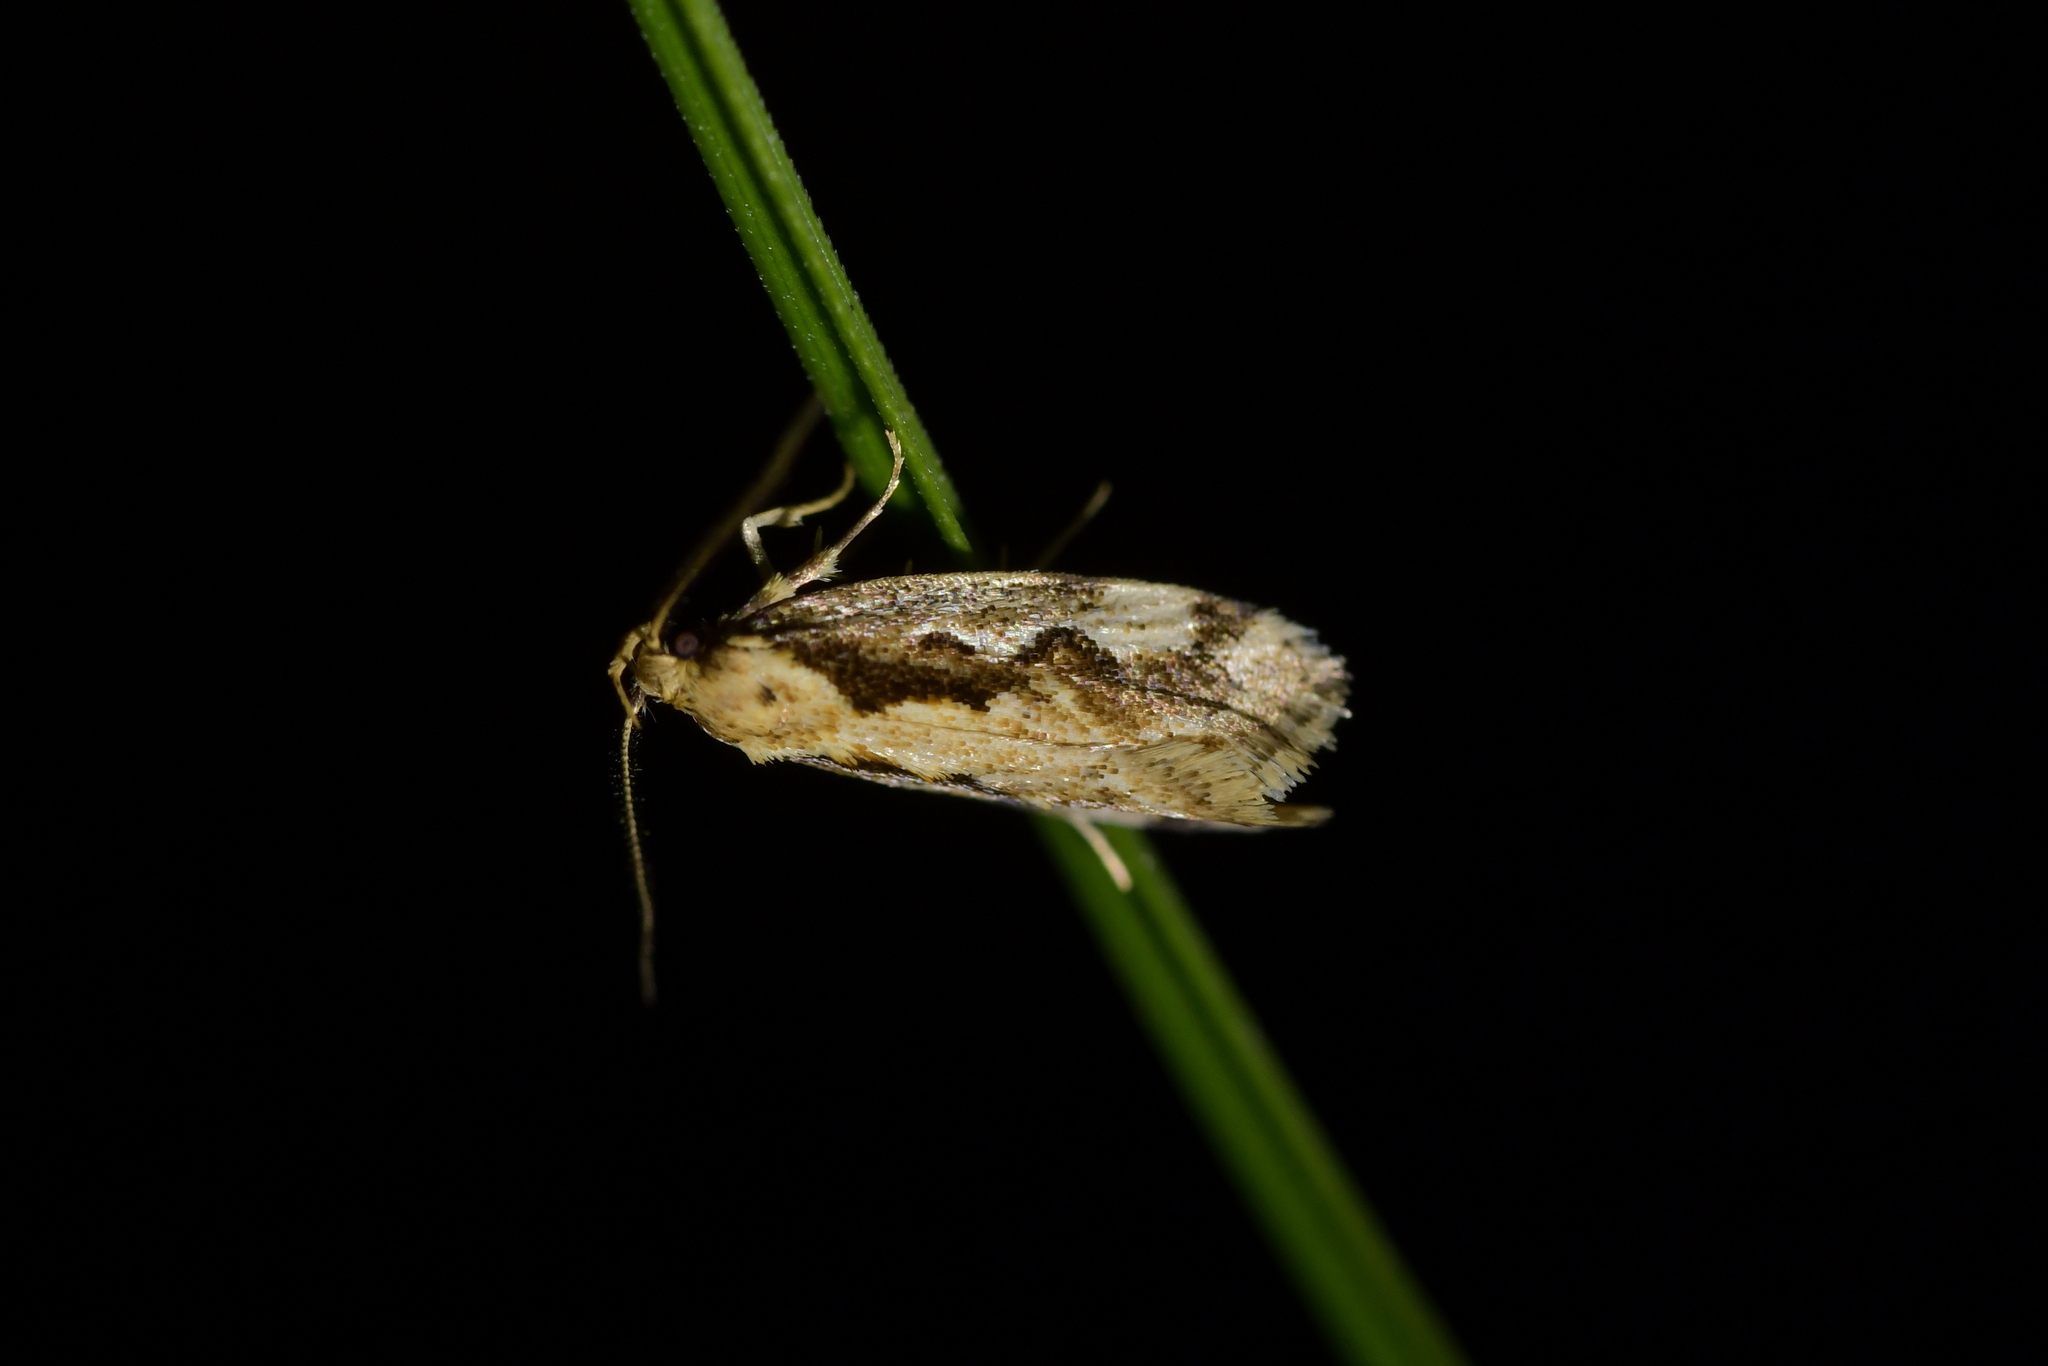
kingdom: Animalia
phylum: Arthropoda
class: Insecta
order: Lepidoptera
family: Oecophoridae
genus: Tingena
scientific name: Tingena ancogramma
